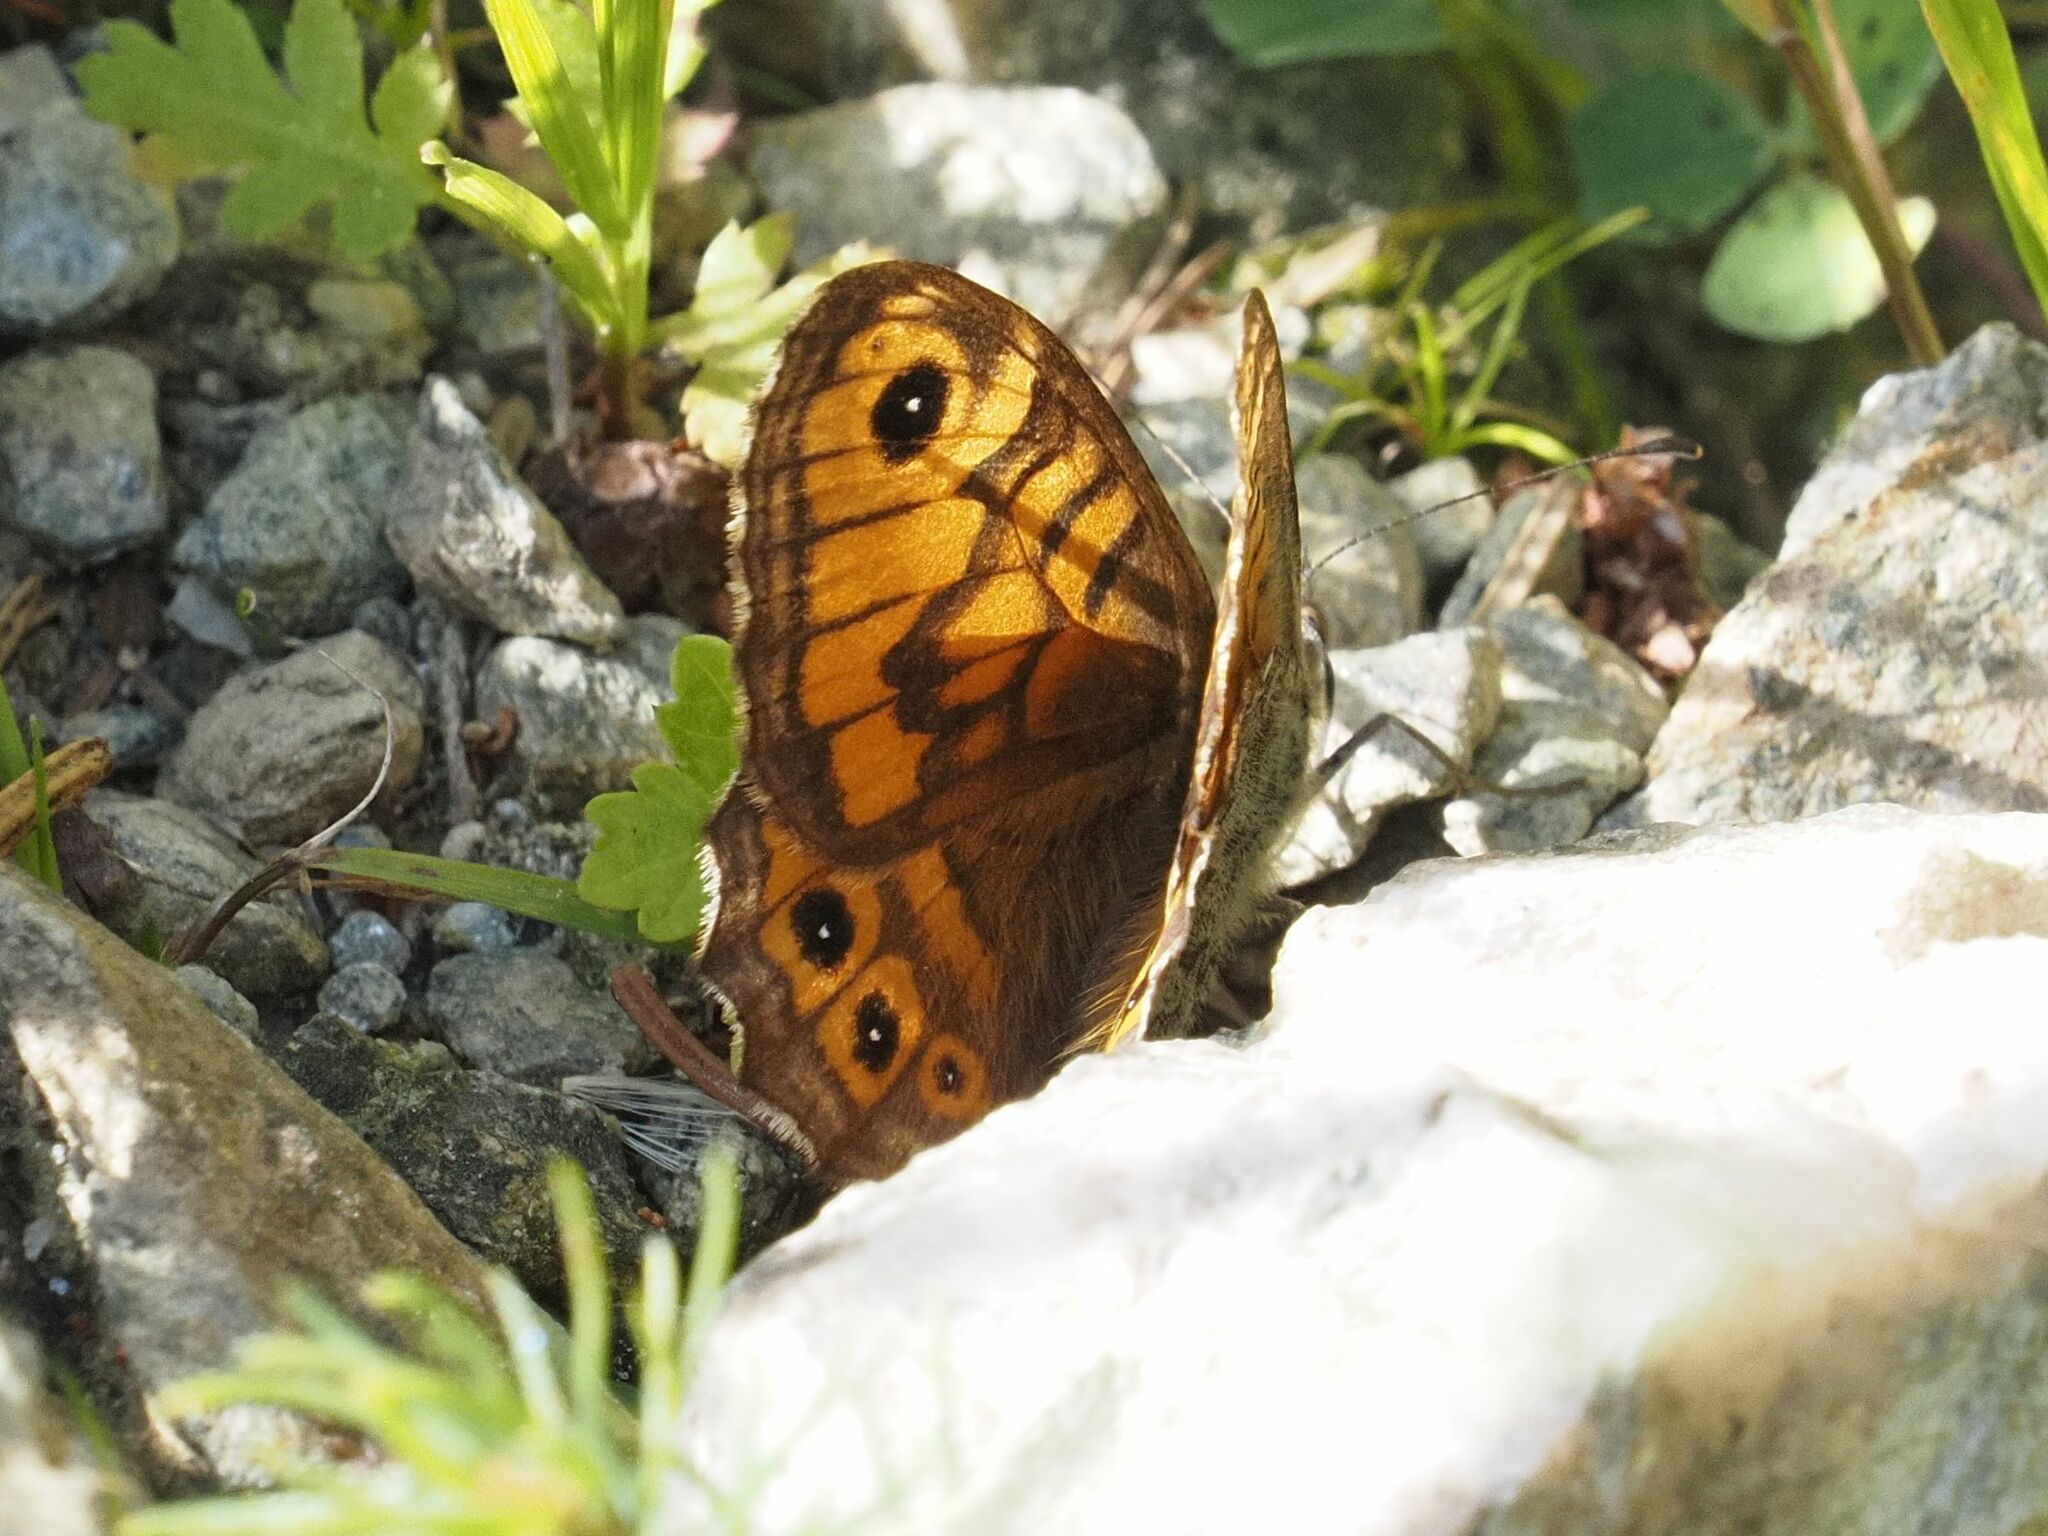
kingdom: Animalia
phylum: Arthropoda
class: Insecta
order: Lepidoptera
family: Nymphalidae
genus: Pararge
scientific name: Pararge Lasiommata megera
